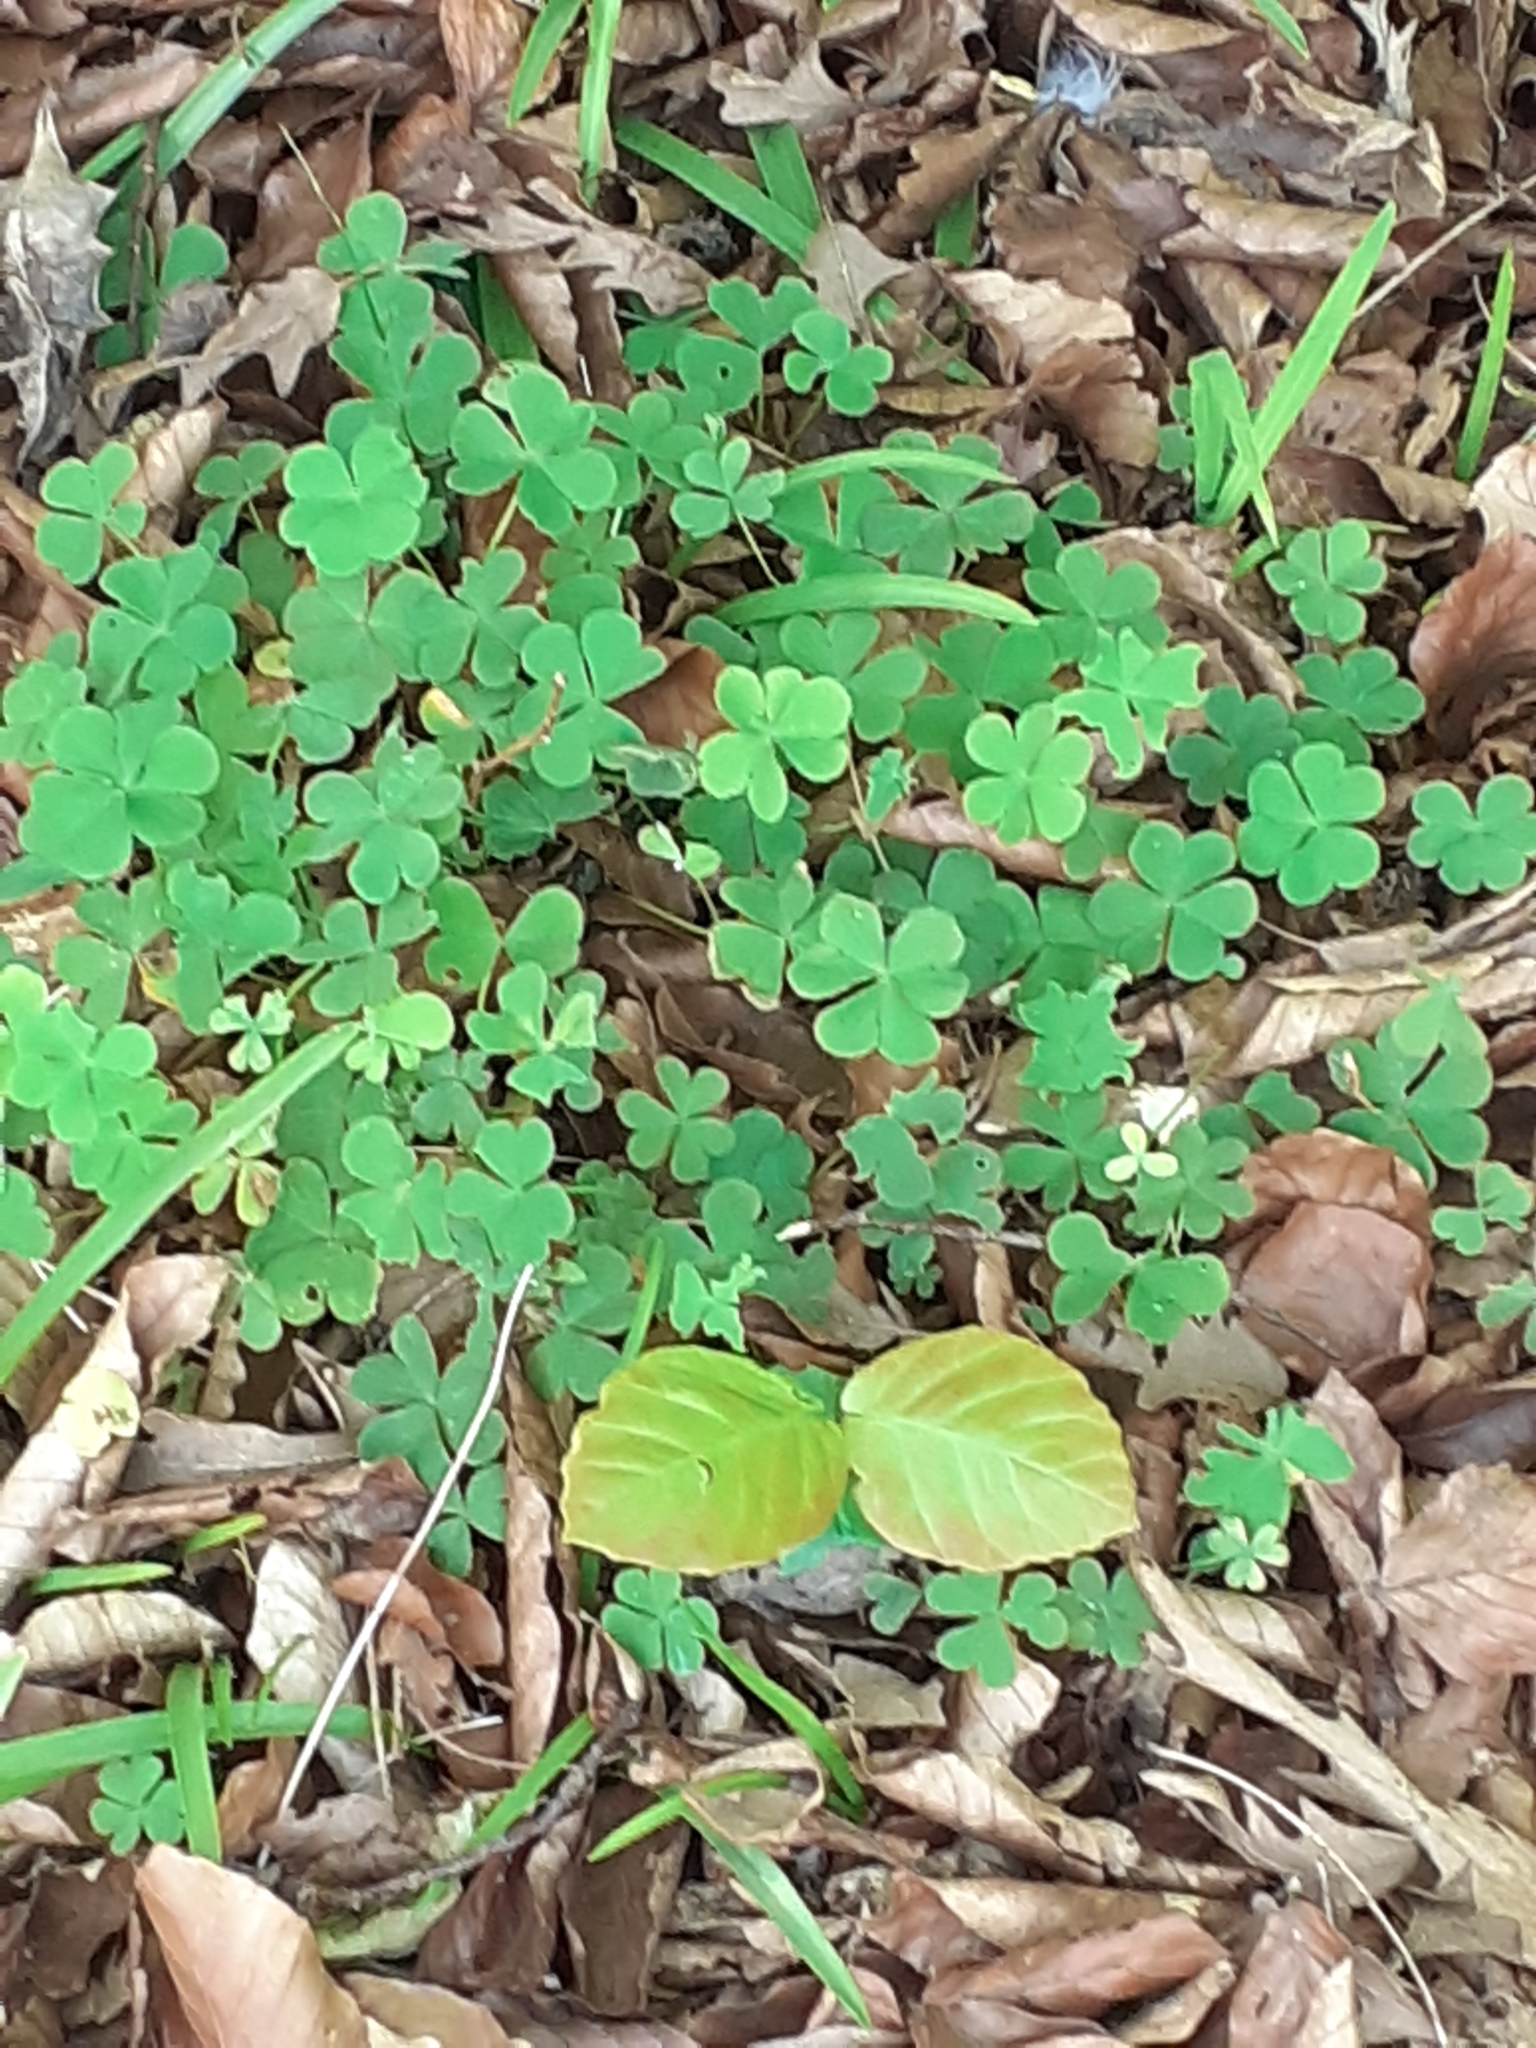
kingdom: Plantae
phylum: Tracheophyta
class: Magnoliopsida
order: Oxalidales
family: Oxalidaceae
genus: Oxalis
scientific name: Oxalis articulata
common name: Pink-sorrel
